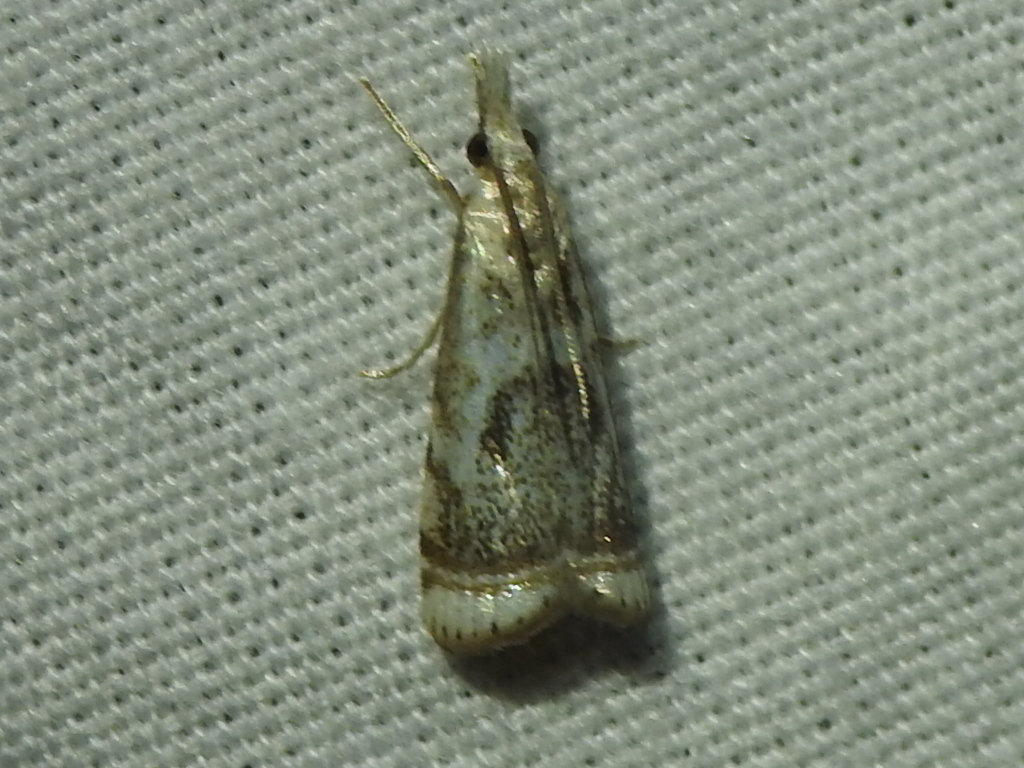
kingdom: Animalia
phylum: Arthropoda
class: Insecta
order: Lepidoptera
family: Crambidae
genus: Microcrambus
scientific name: Microcrambus elegans
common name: Elegant grass-veneer
